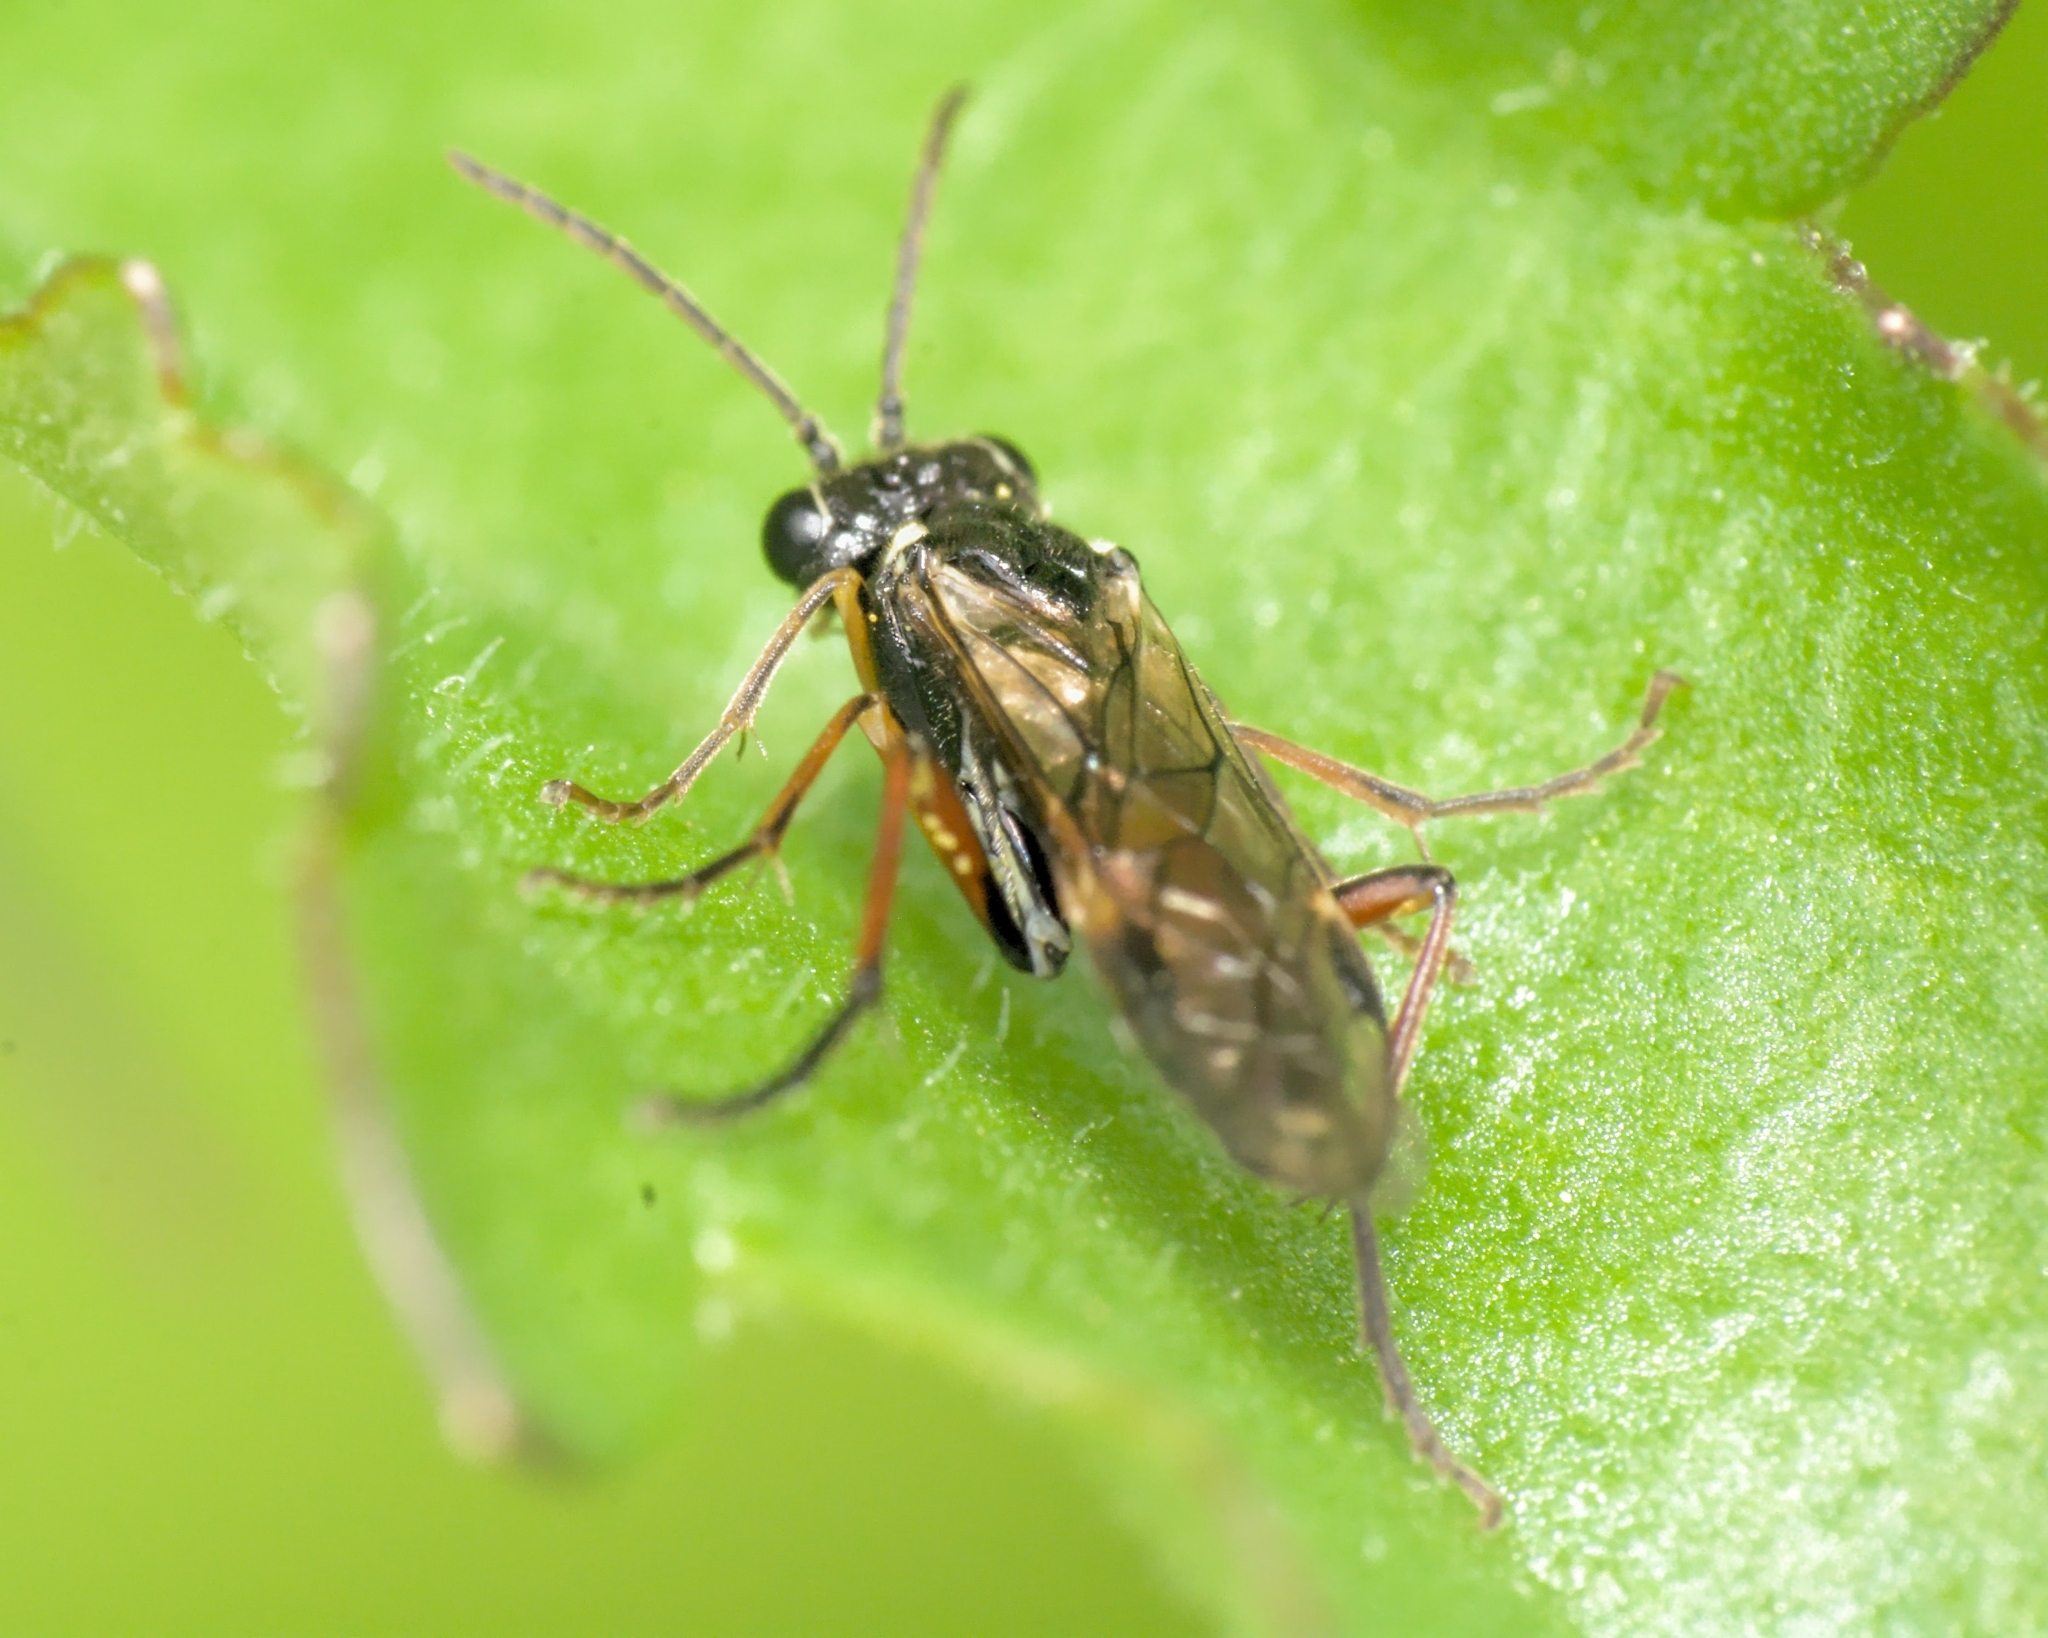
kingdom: Animalia
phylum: Arthropoda
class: Insecta
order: Hymenoptera
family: Tenthredinidae
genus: Aglaostigma
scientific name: Aglaostigma aucupariae
